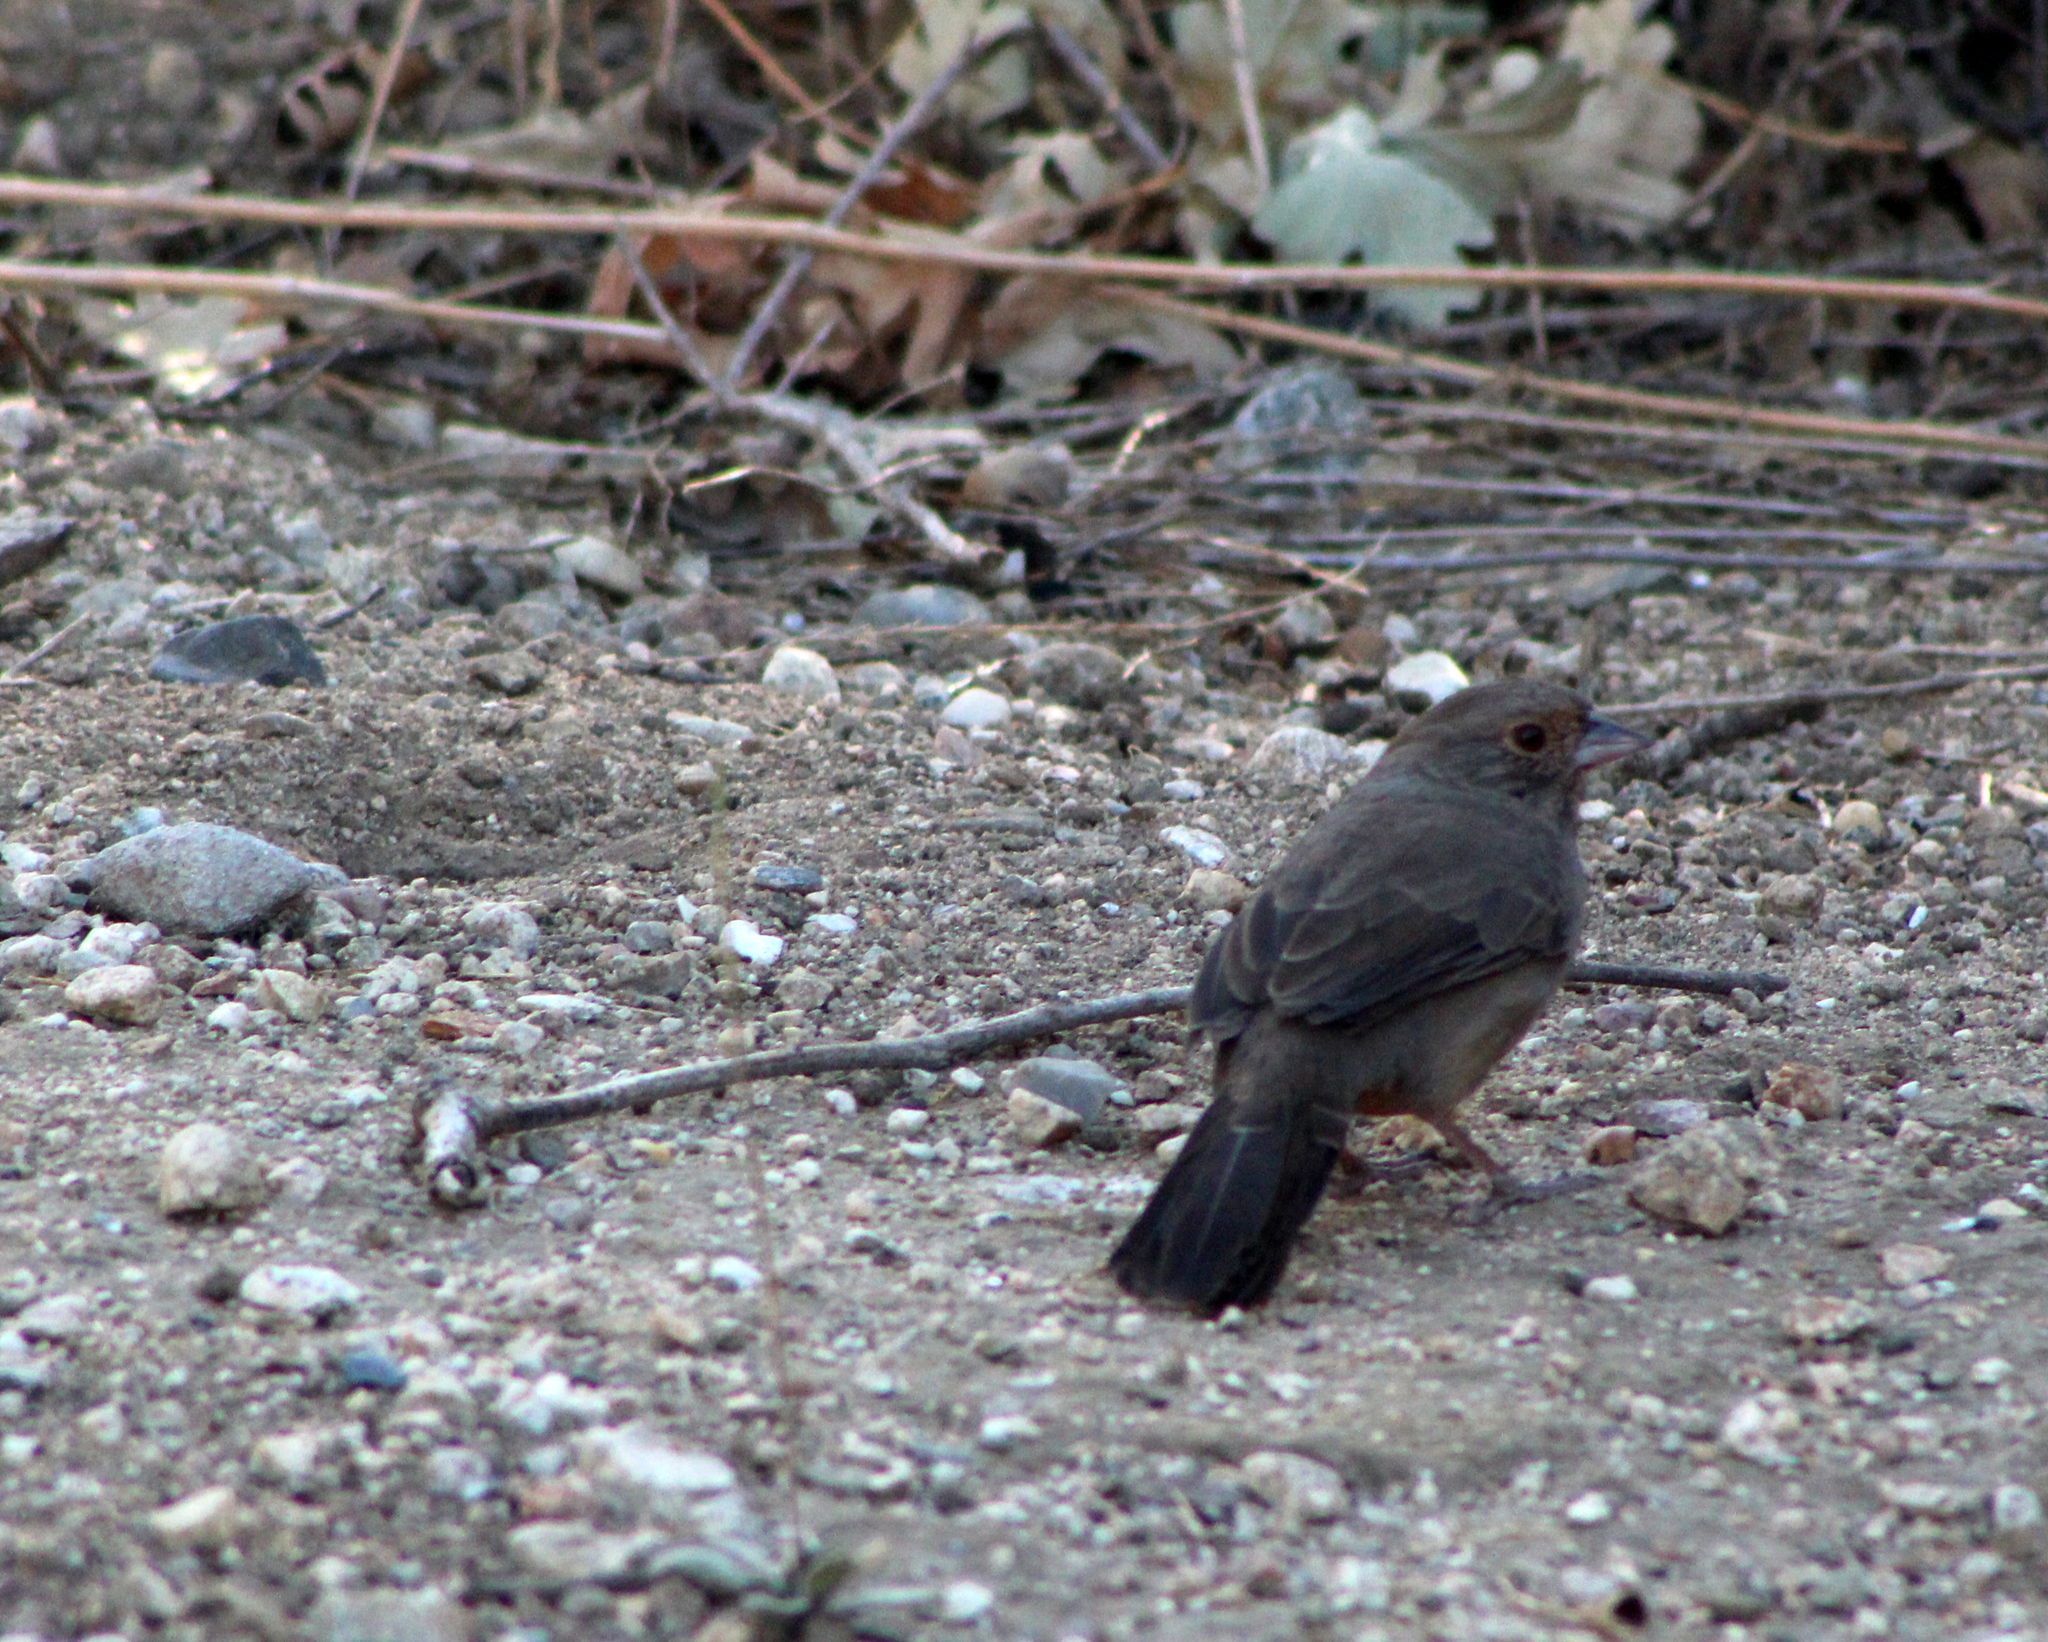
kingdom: Animalia
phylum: Chordata
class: Aves
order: Passeriformes
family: Passerellidae
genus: Melozone
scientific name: Melozone crissalis
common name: California towhee
